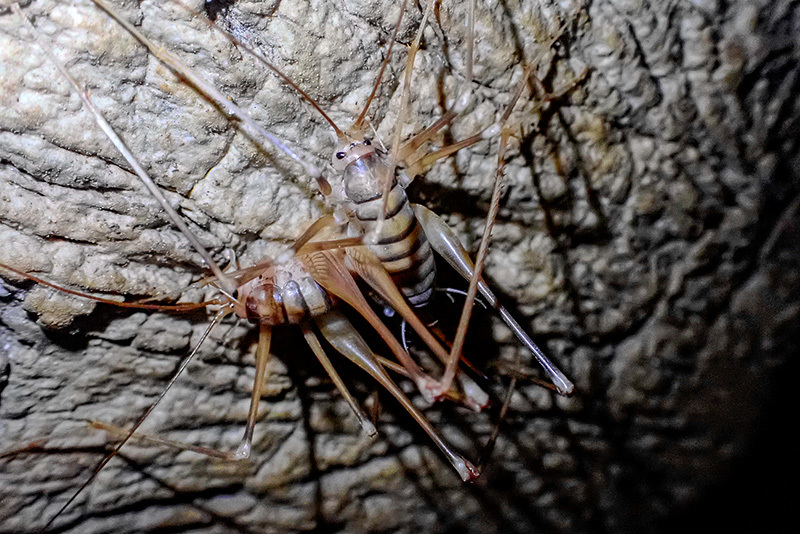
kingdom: Animalia
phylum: Arthropoda
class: Insecta
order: Orthoptera
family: Rhaphidophoridae
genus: Dolichopoda
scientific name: Dolichopoda palpata
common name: Palpate cave cricket
